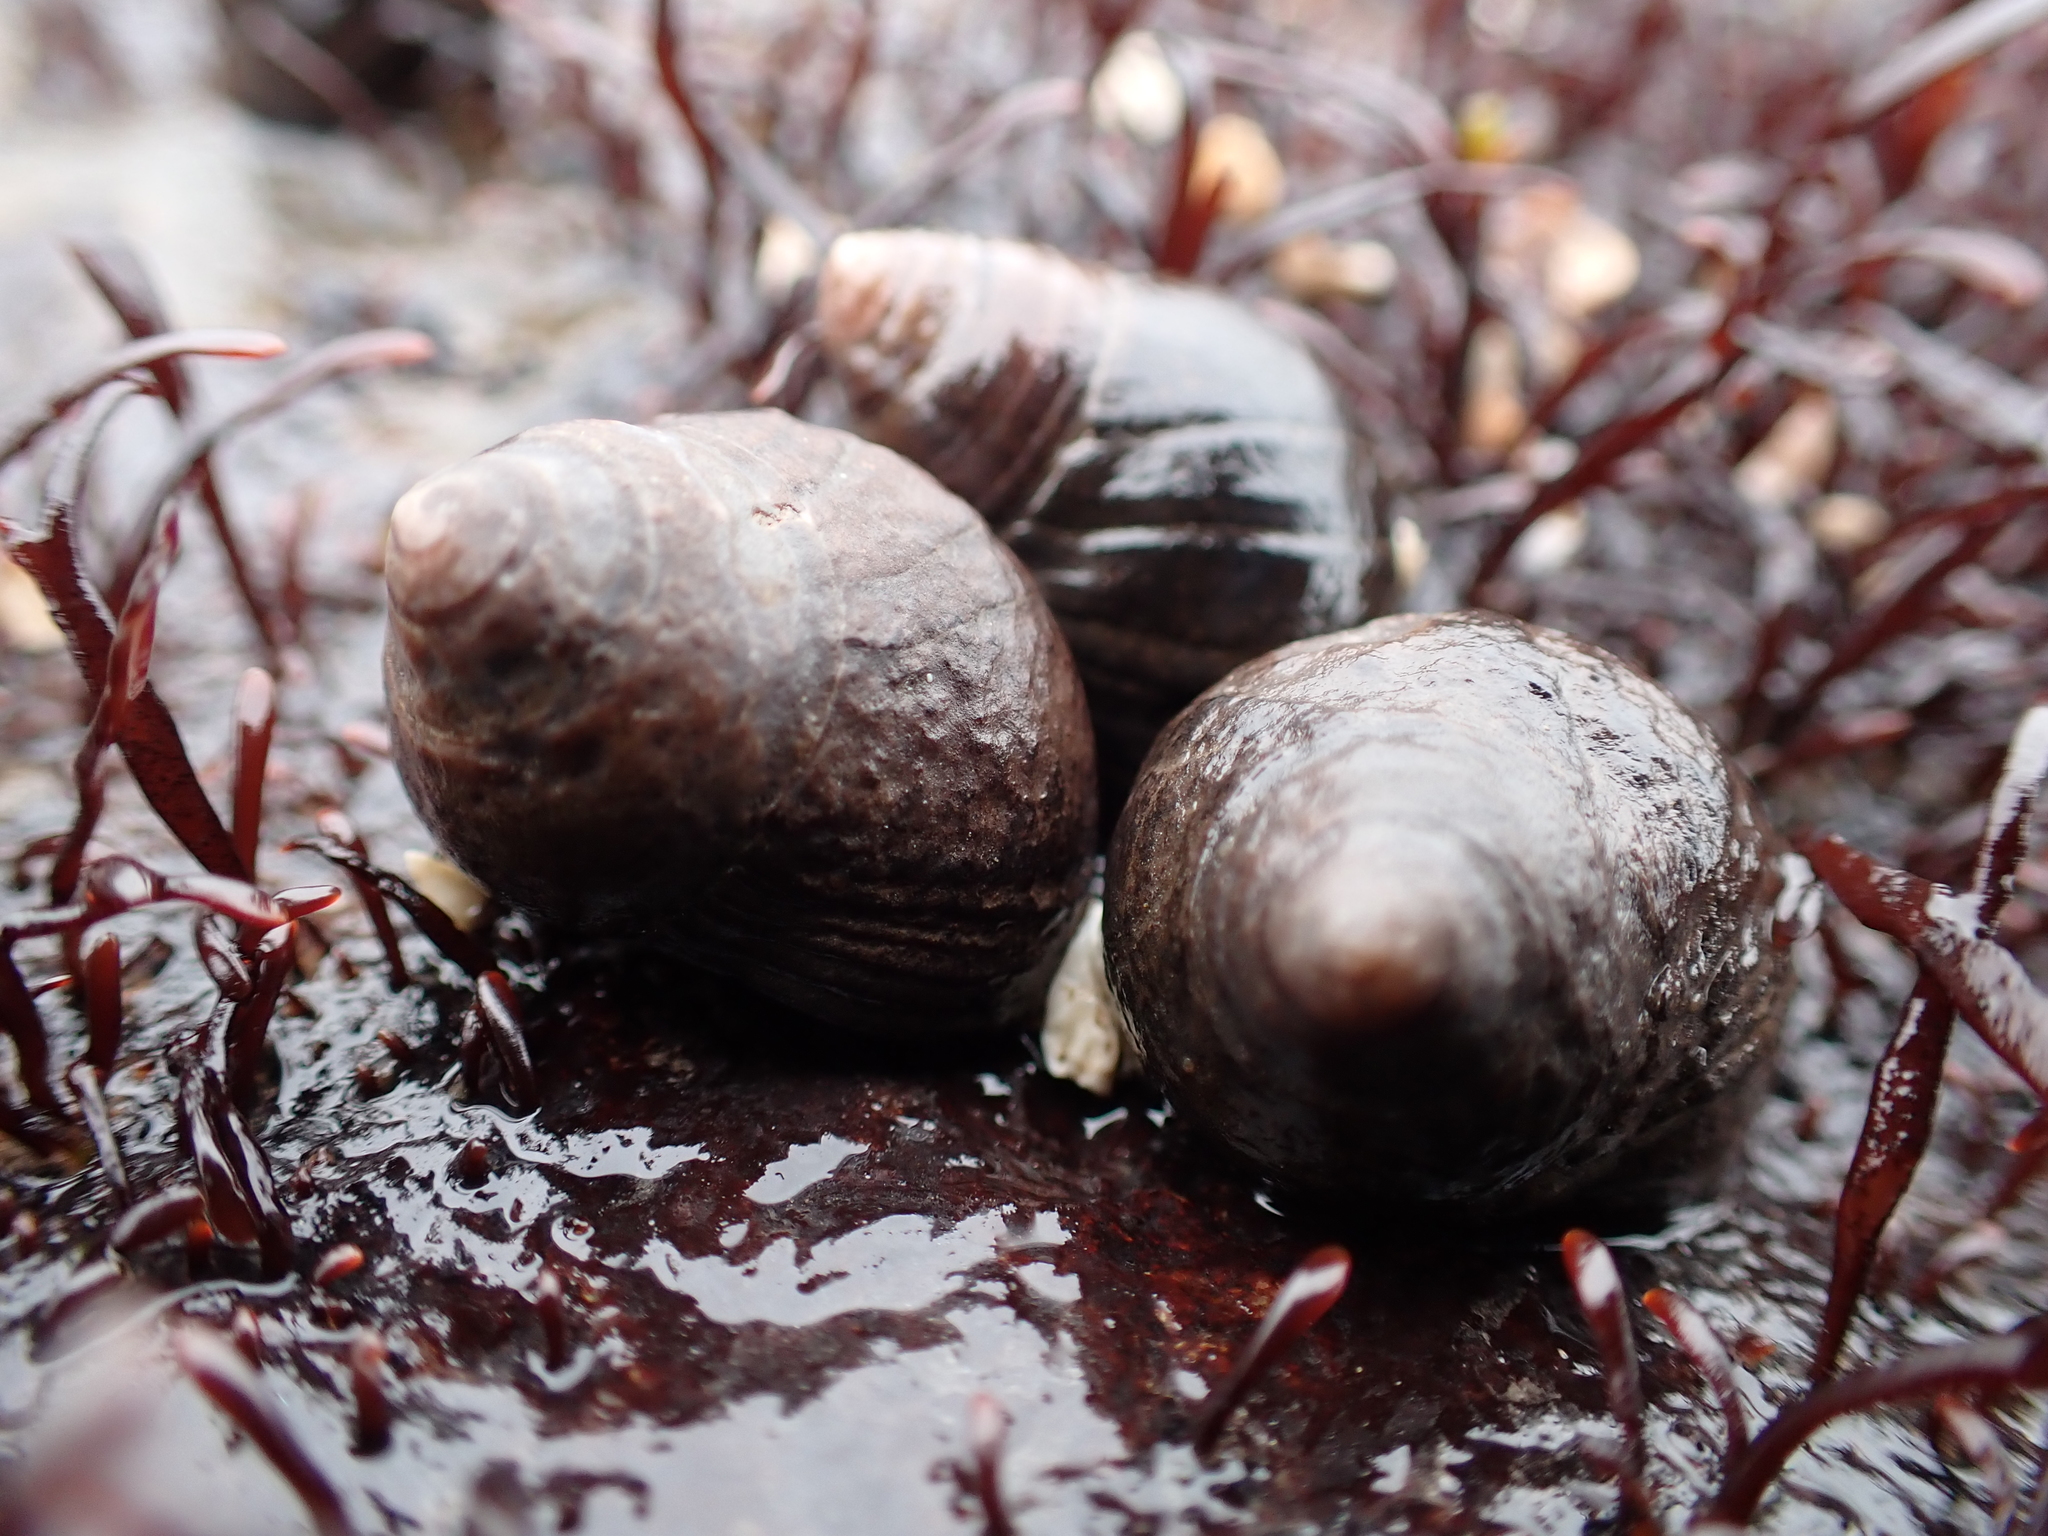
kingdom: Animalia
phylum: Mollusca
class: Gastropoda
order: Littorinimorpha
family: Littorinidae
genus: Littorina
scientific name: Littorina littorea
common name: Common periwinkle
